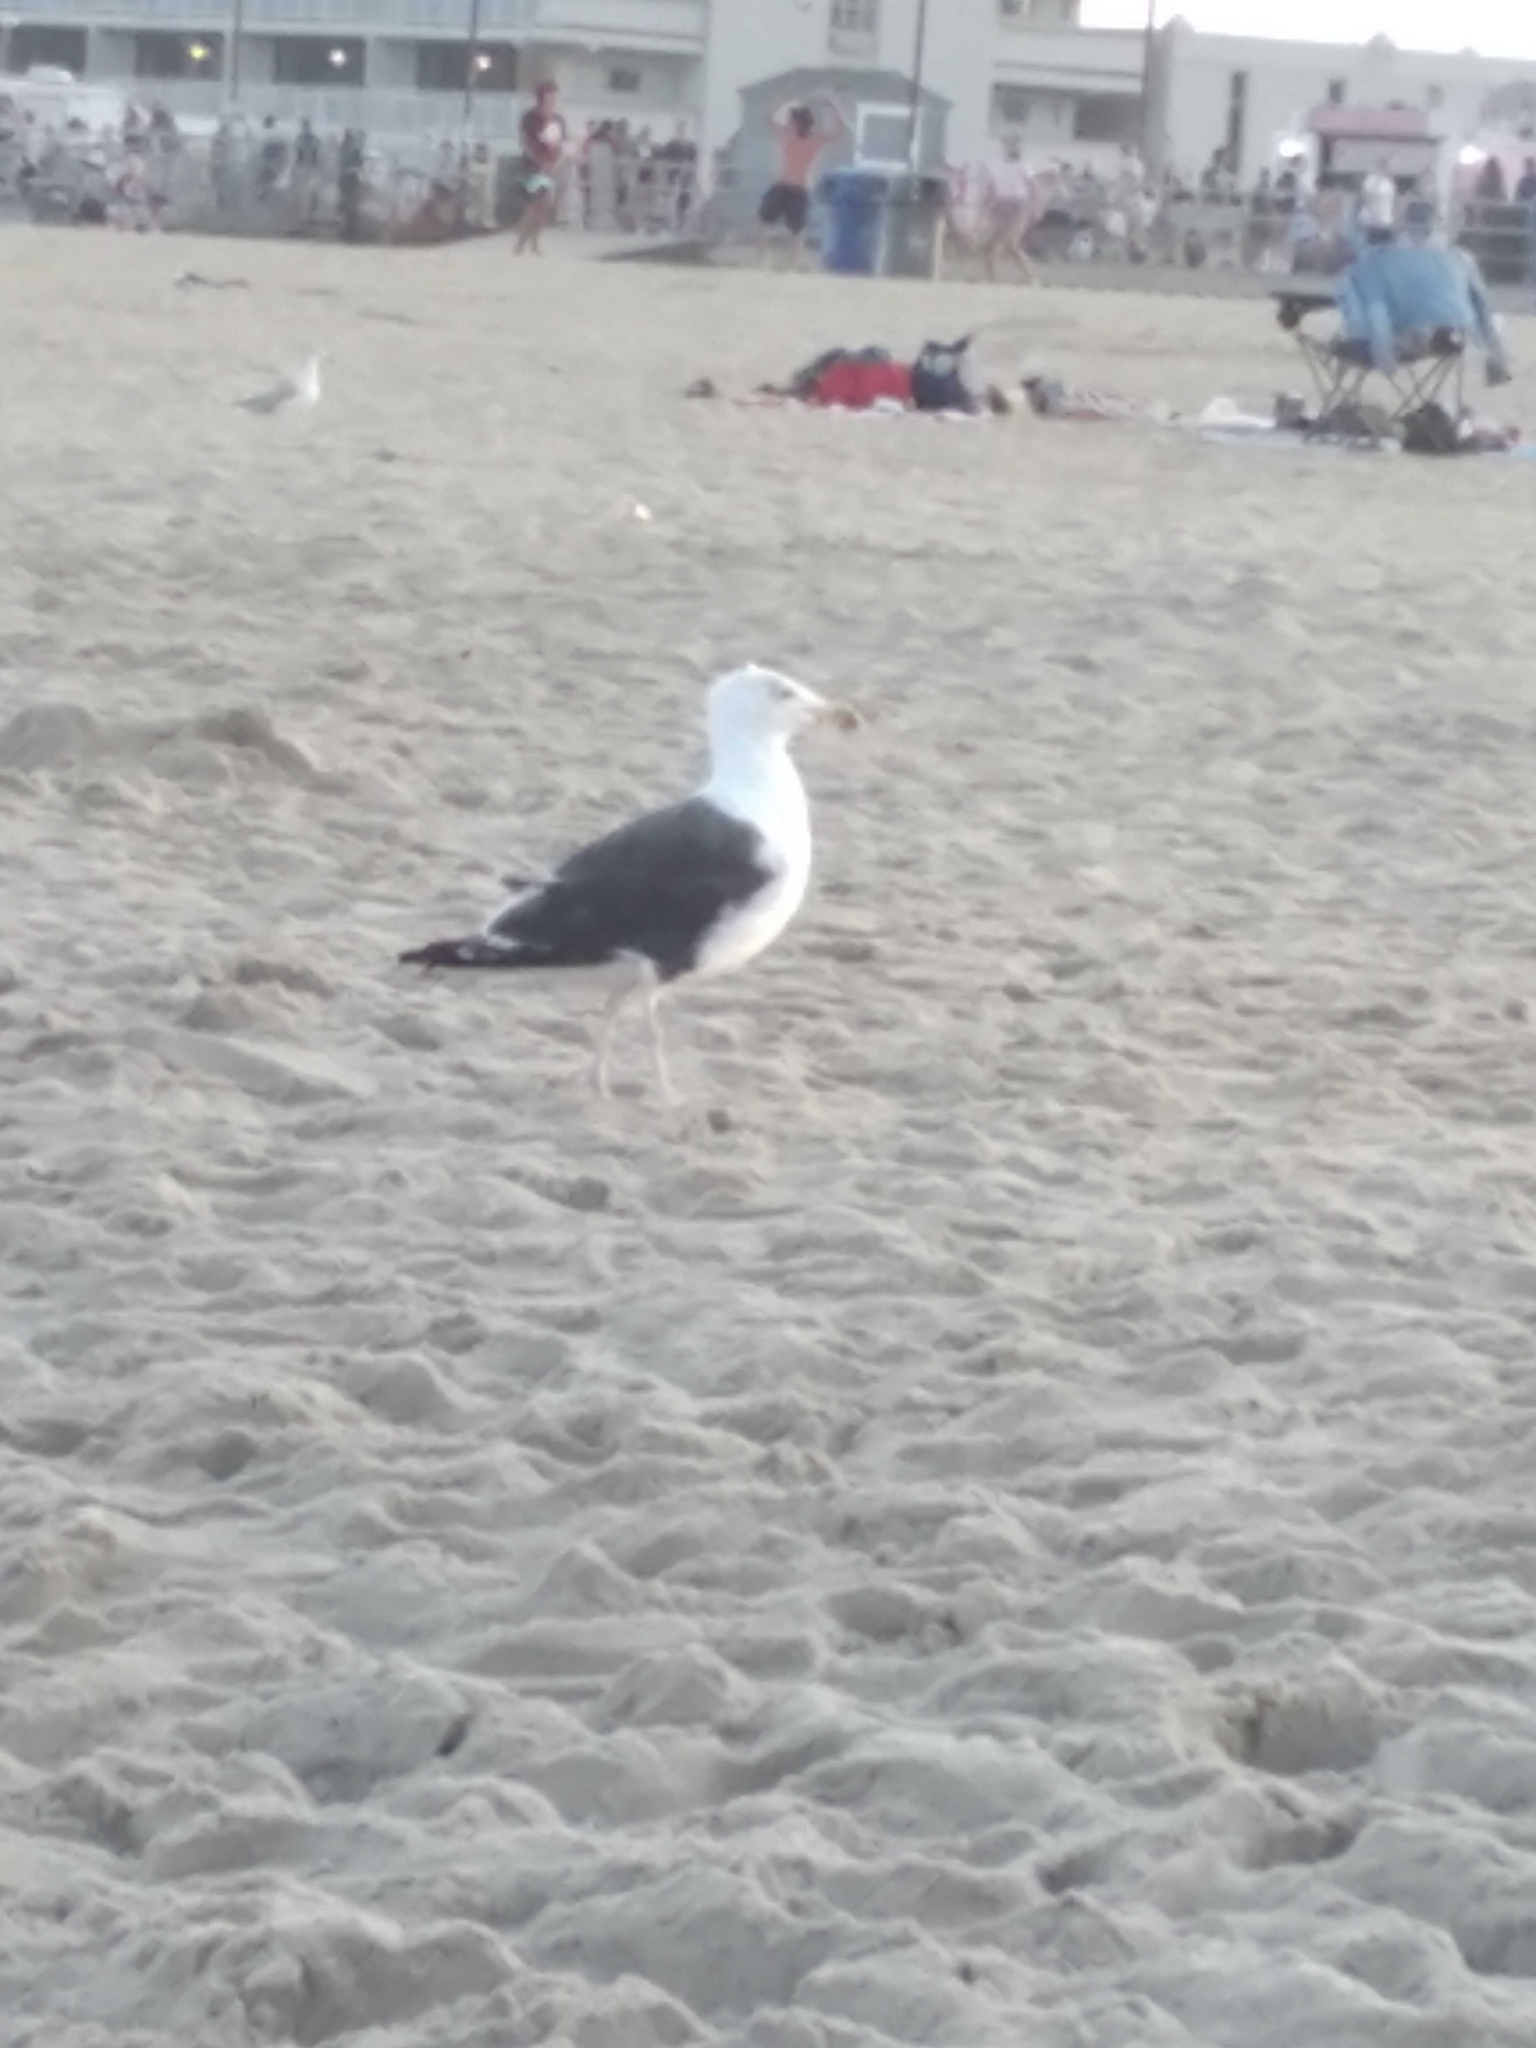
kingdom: Animalia
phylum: Chordata
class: Aves
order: Charadriiformes
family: Laridae
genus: Larus
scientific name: Larus marinus
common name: Great black-backed gull
